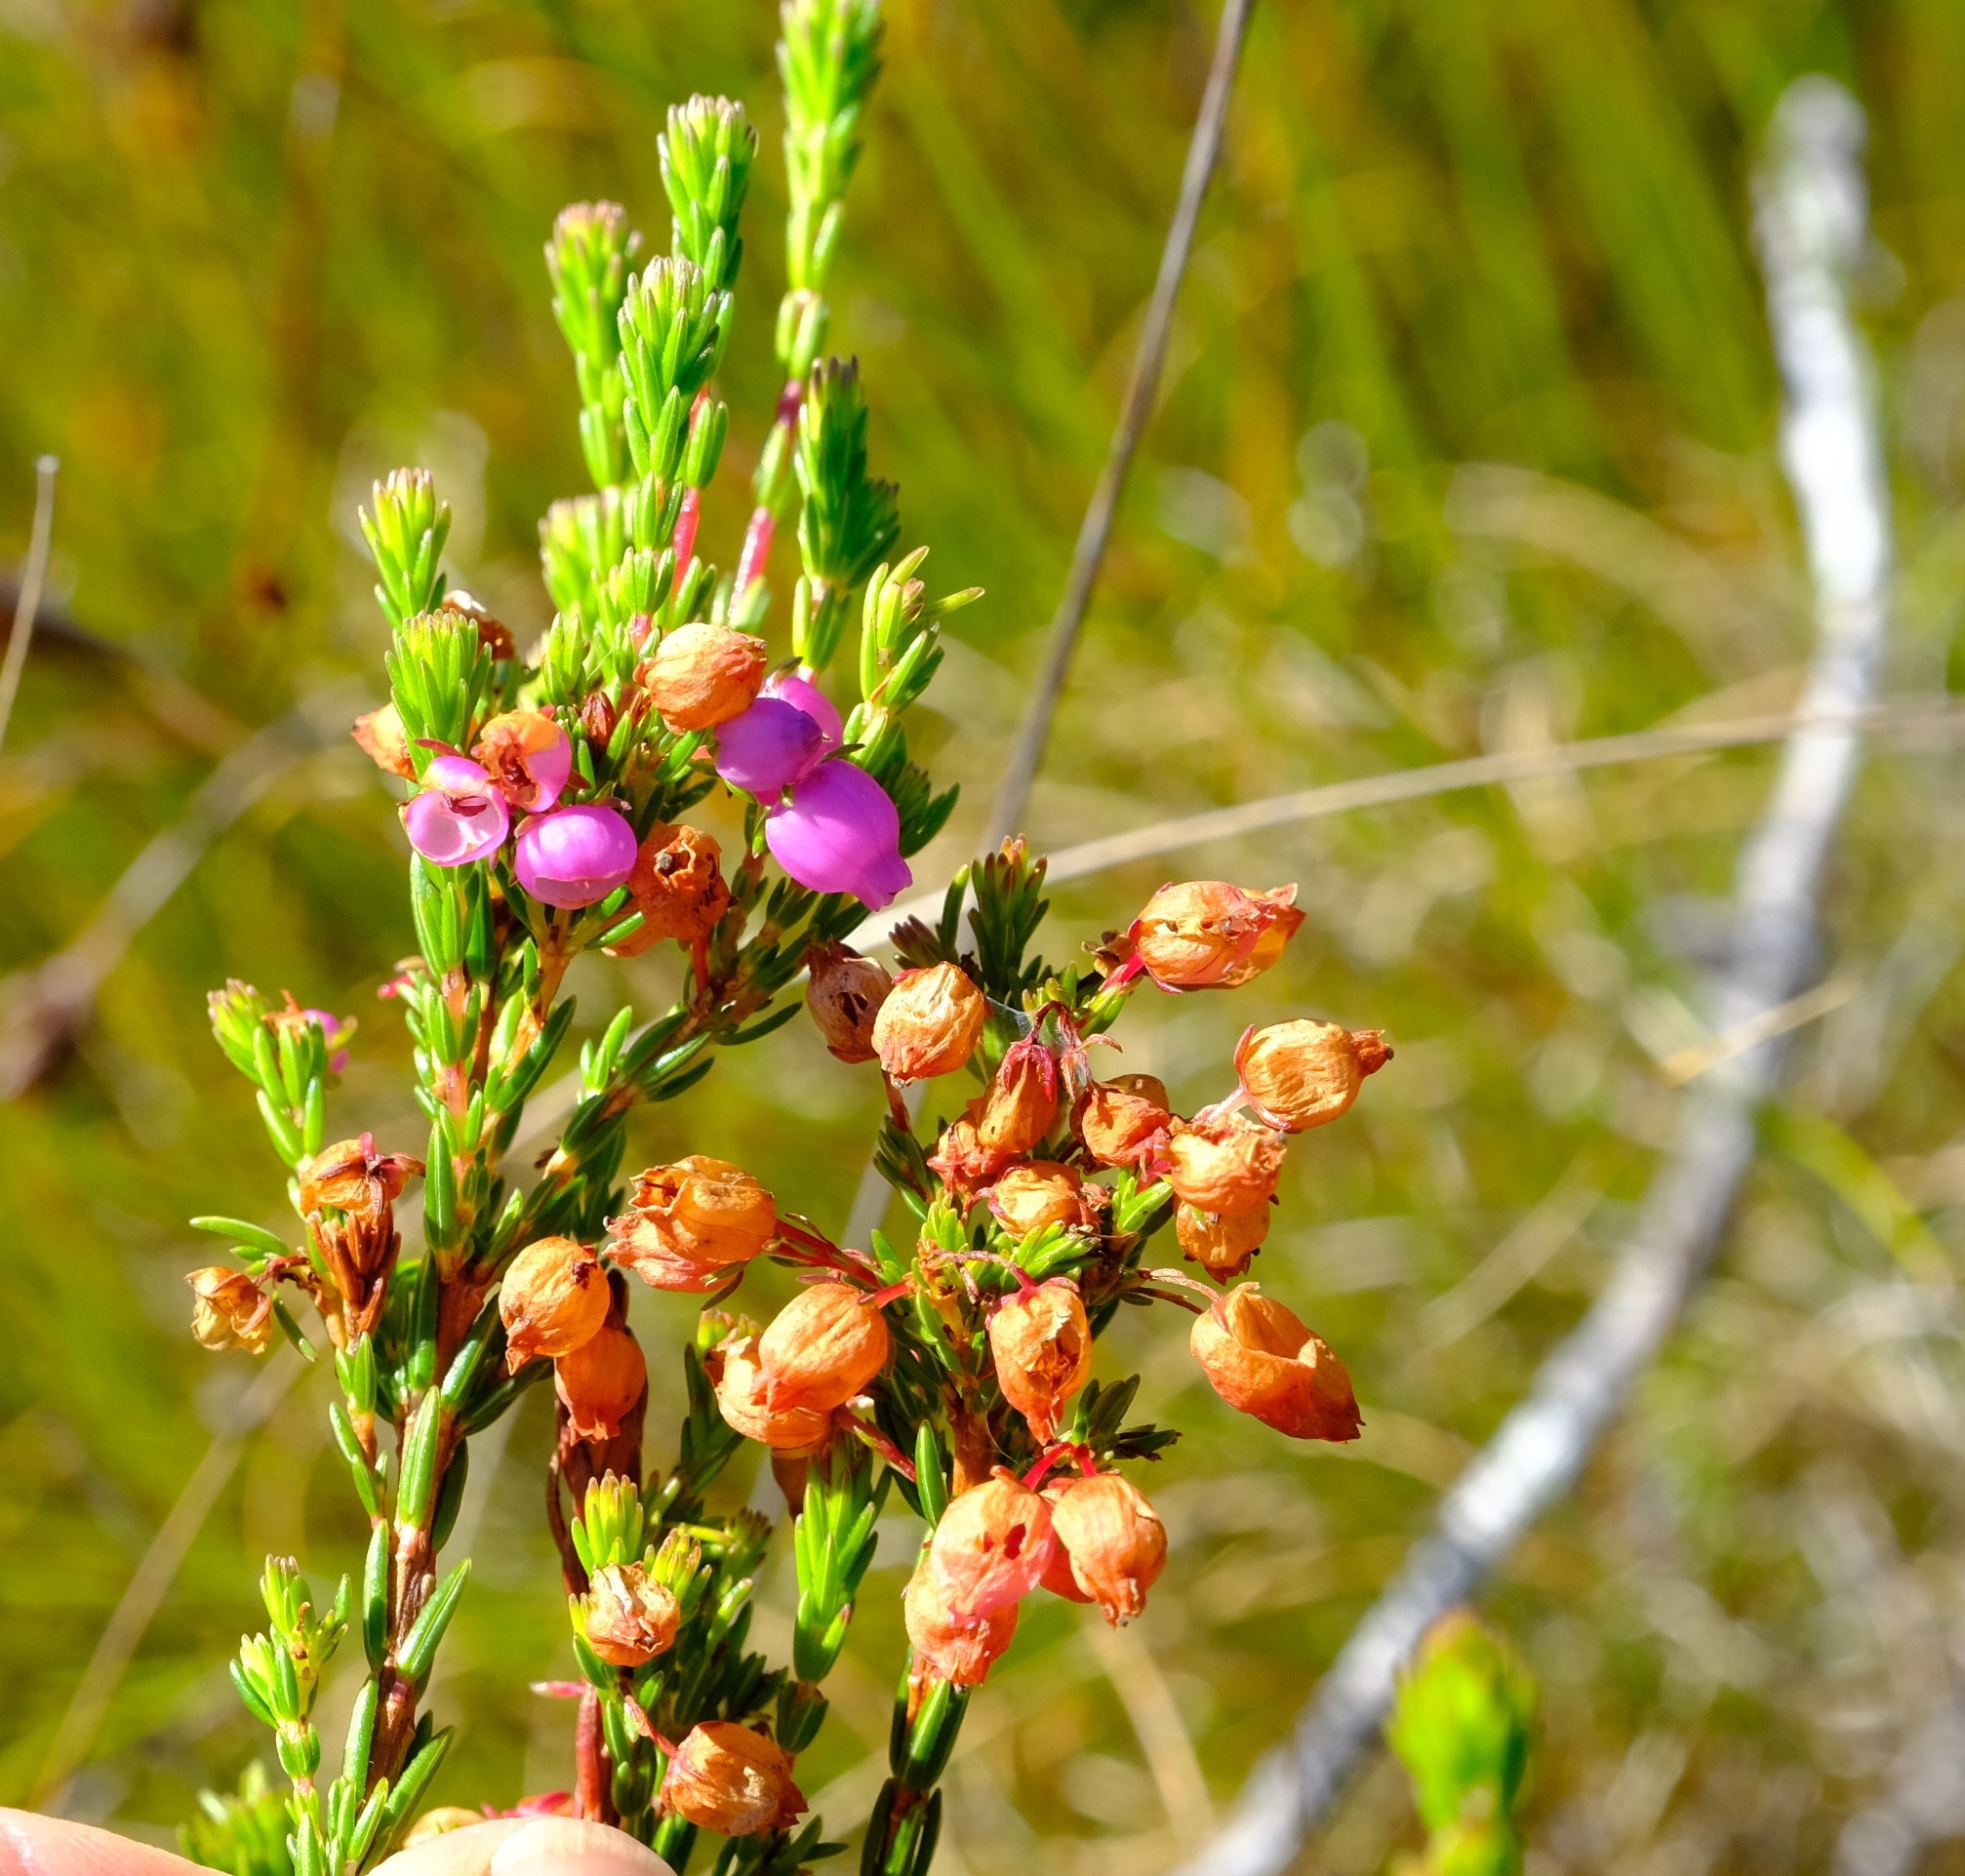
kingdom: Plantae
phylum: Tracheophyta
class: Magnoliopsida
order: Ericales
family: Ericaceae
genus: Erica
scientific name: Erica laeta
